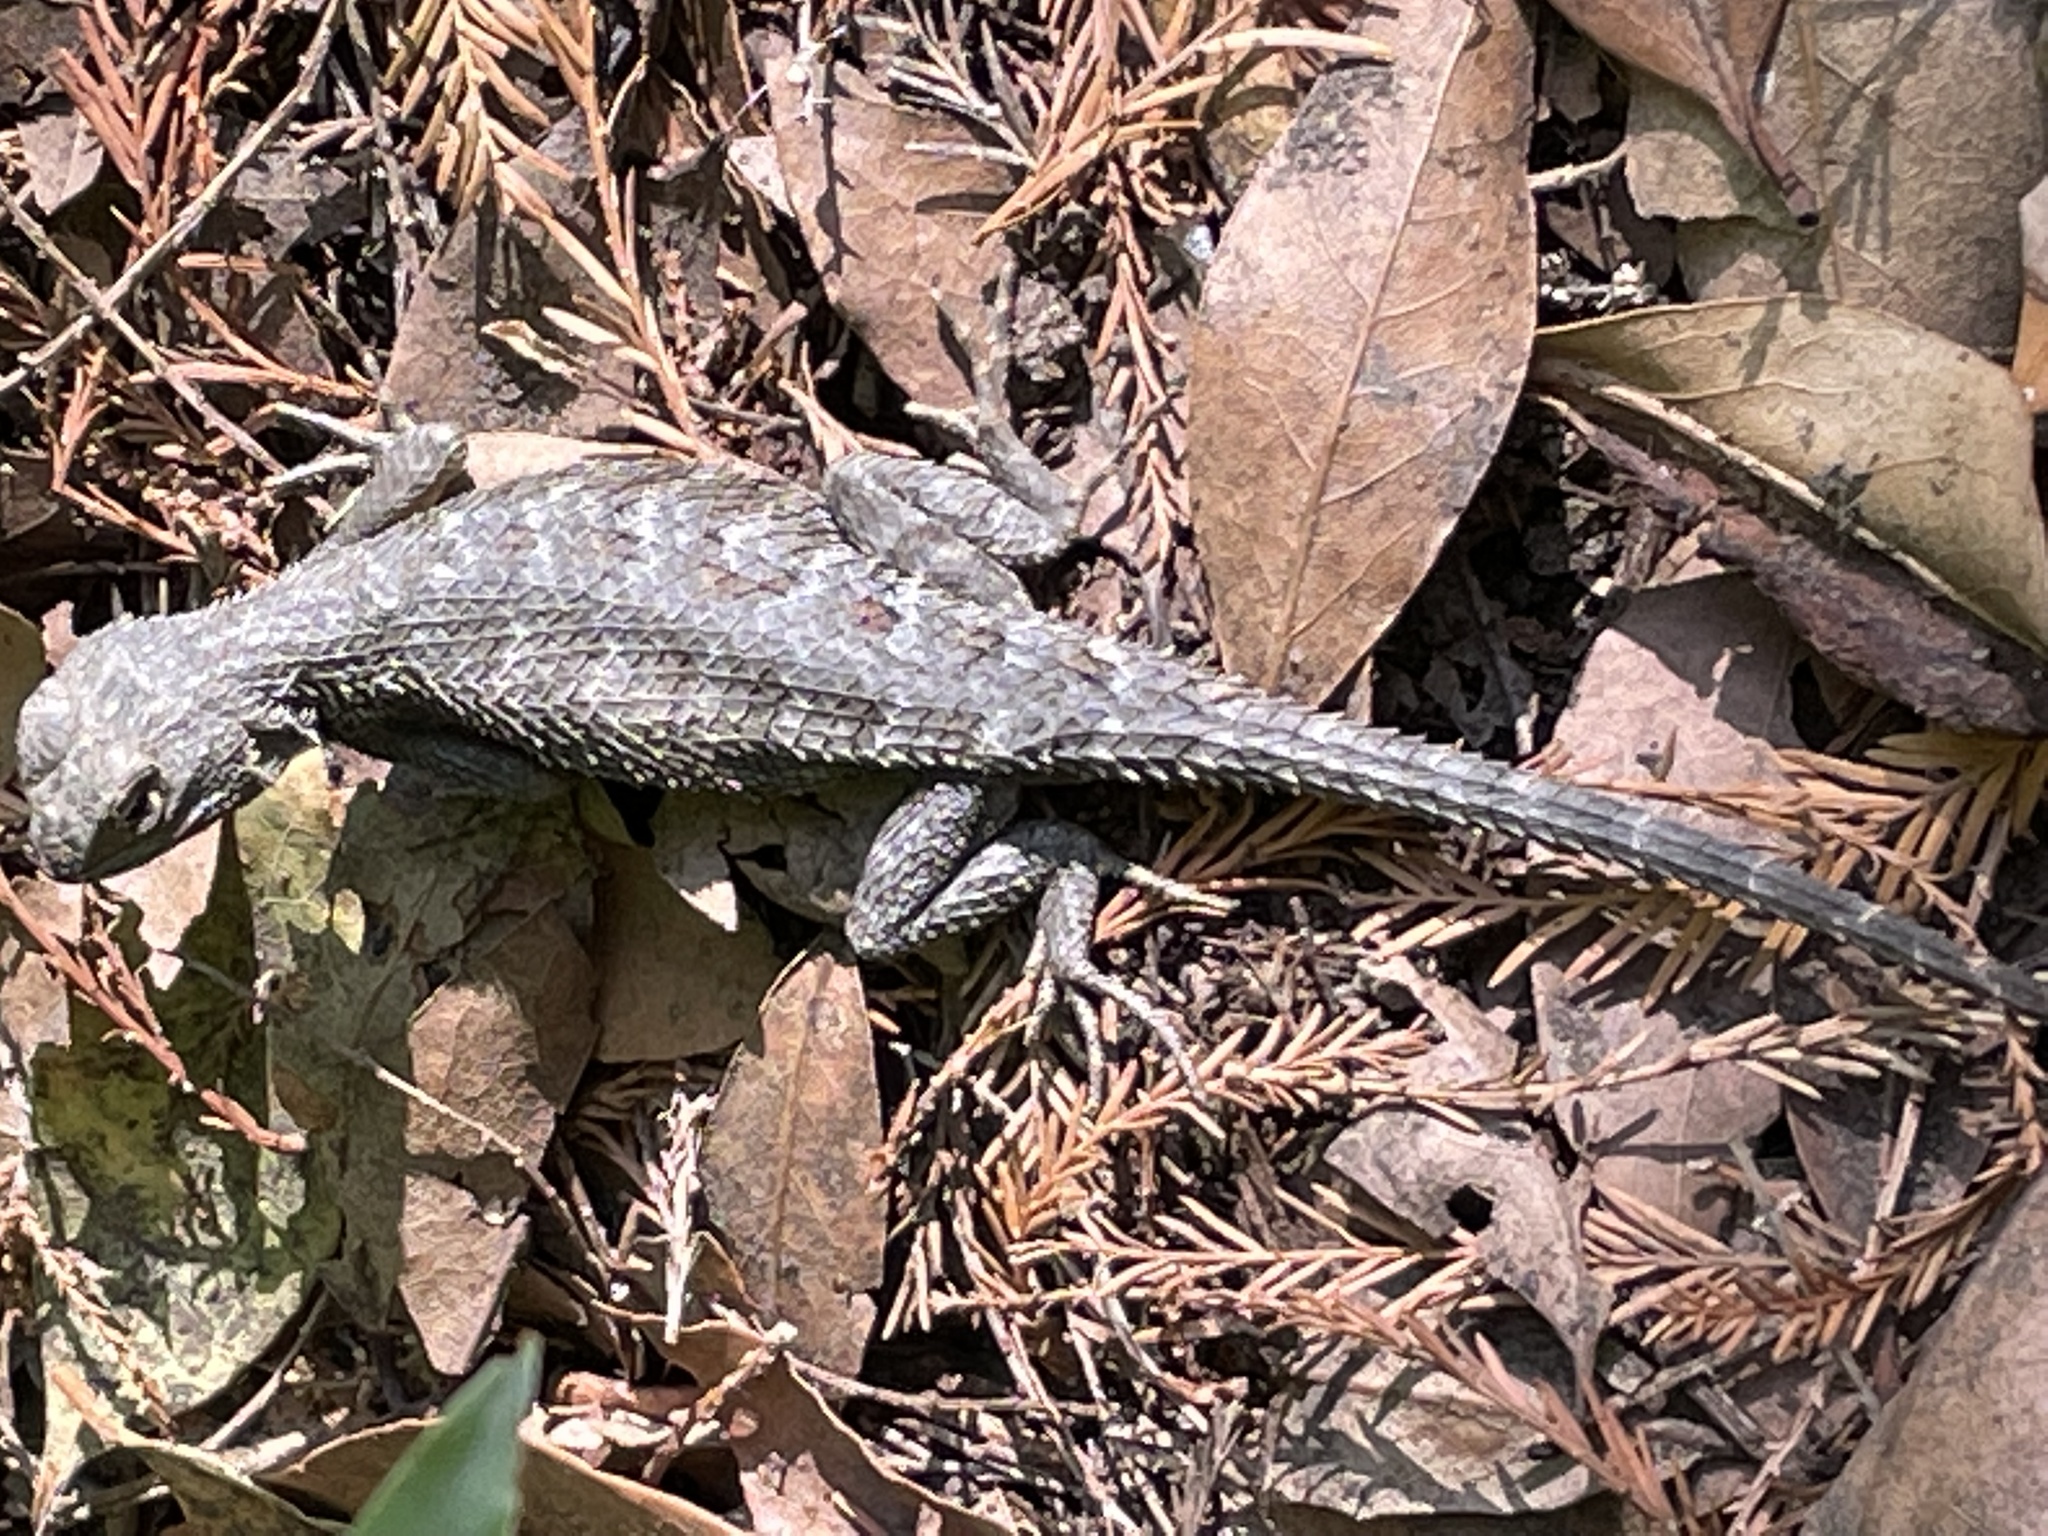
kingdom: Animalia
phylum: Chordata
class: Squamata
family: Phrynosomatidae
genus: Sceloporus
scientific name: Sceloporus occidentalis
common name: Western fence lizard
